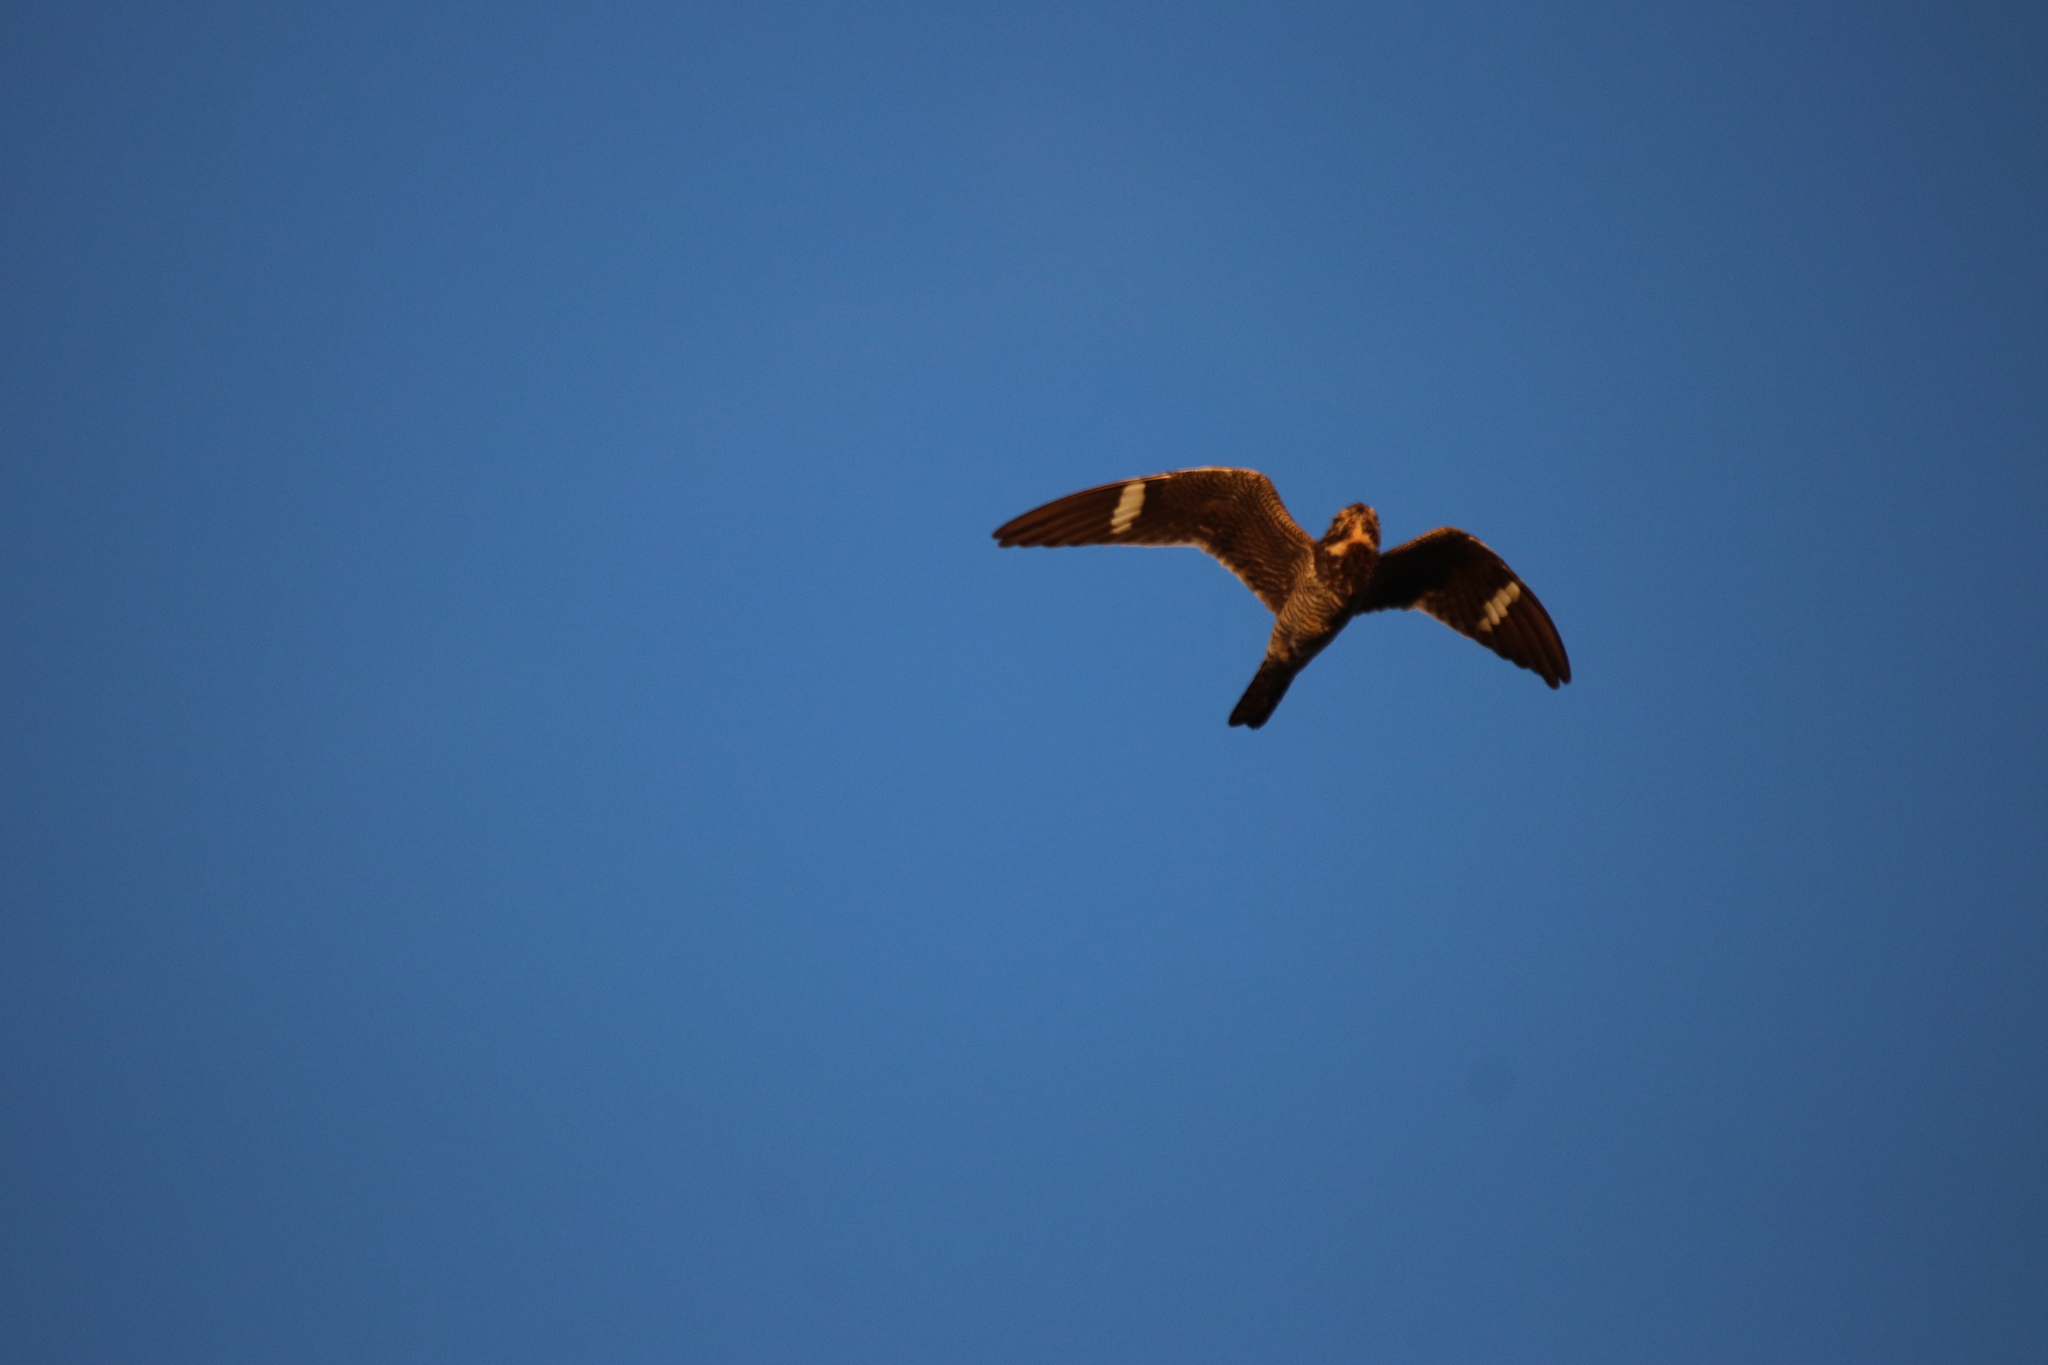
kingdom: Animalia
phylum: Chordata
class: Aves
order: Caprimulgiformes
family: Caprimulgidae
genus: Chordeiles
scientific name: Chordeiles minor
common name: Common nighthawk
